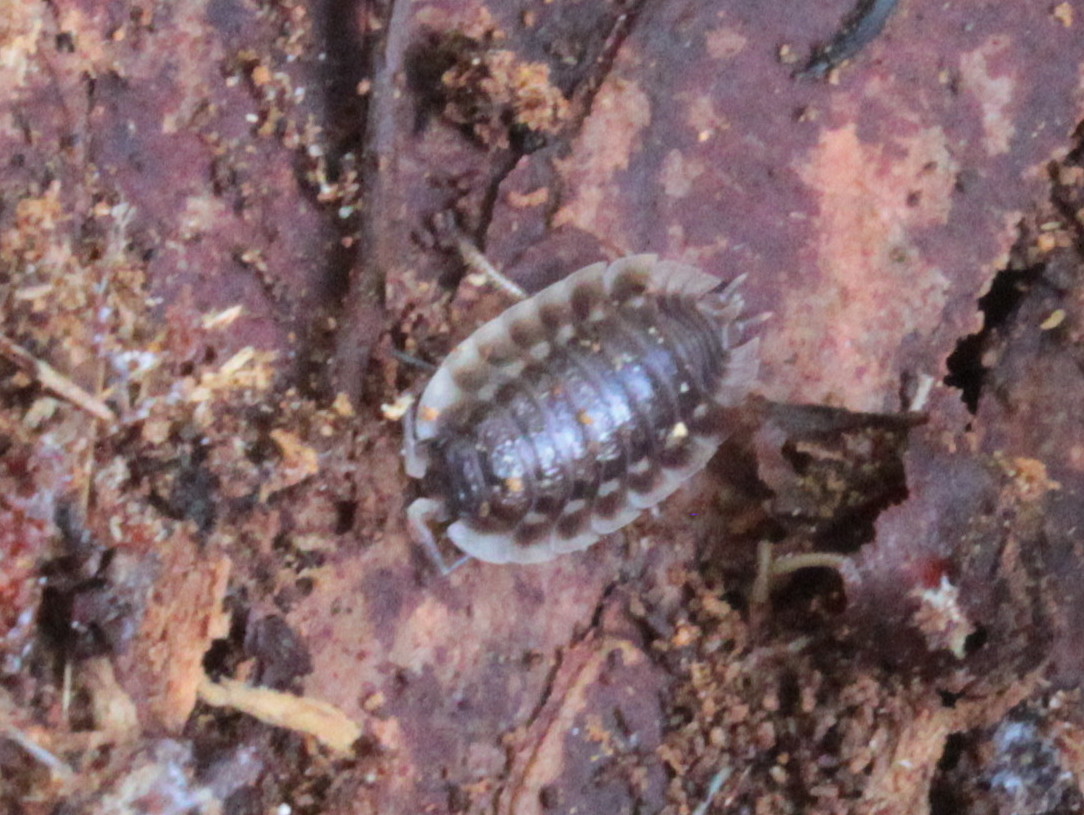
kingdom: Animalia
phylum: Arthropoda
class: Malacostraca
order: Isopoda
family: Oniscidae
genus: Oniscus
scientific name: Oniscus asellus
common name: Common shiny woodlouse
